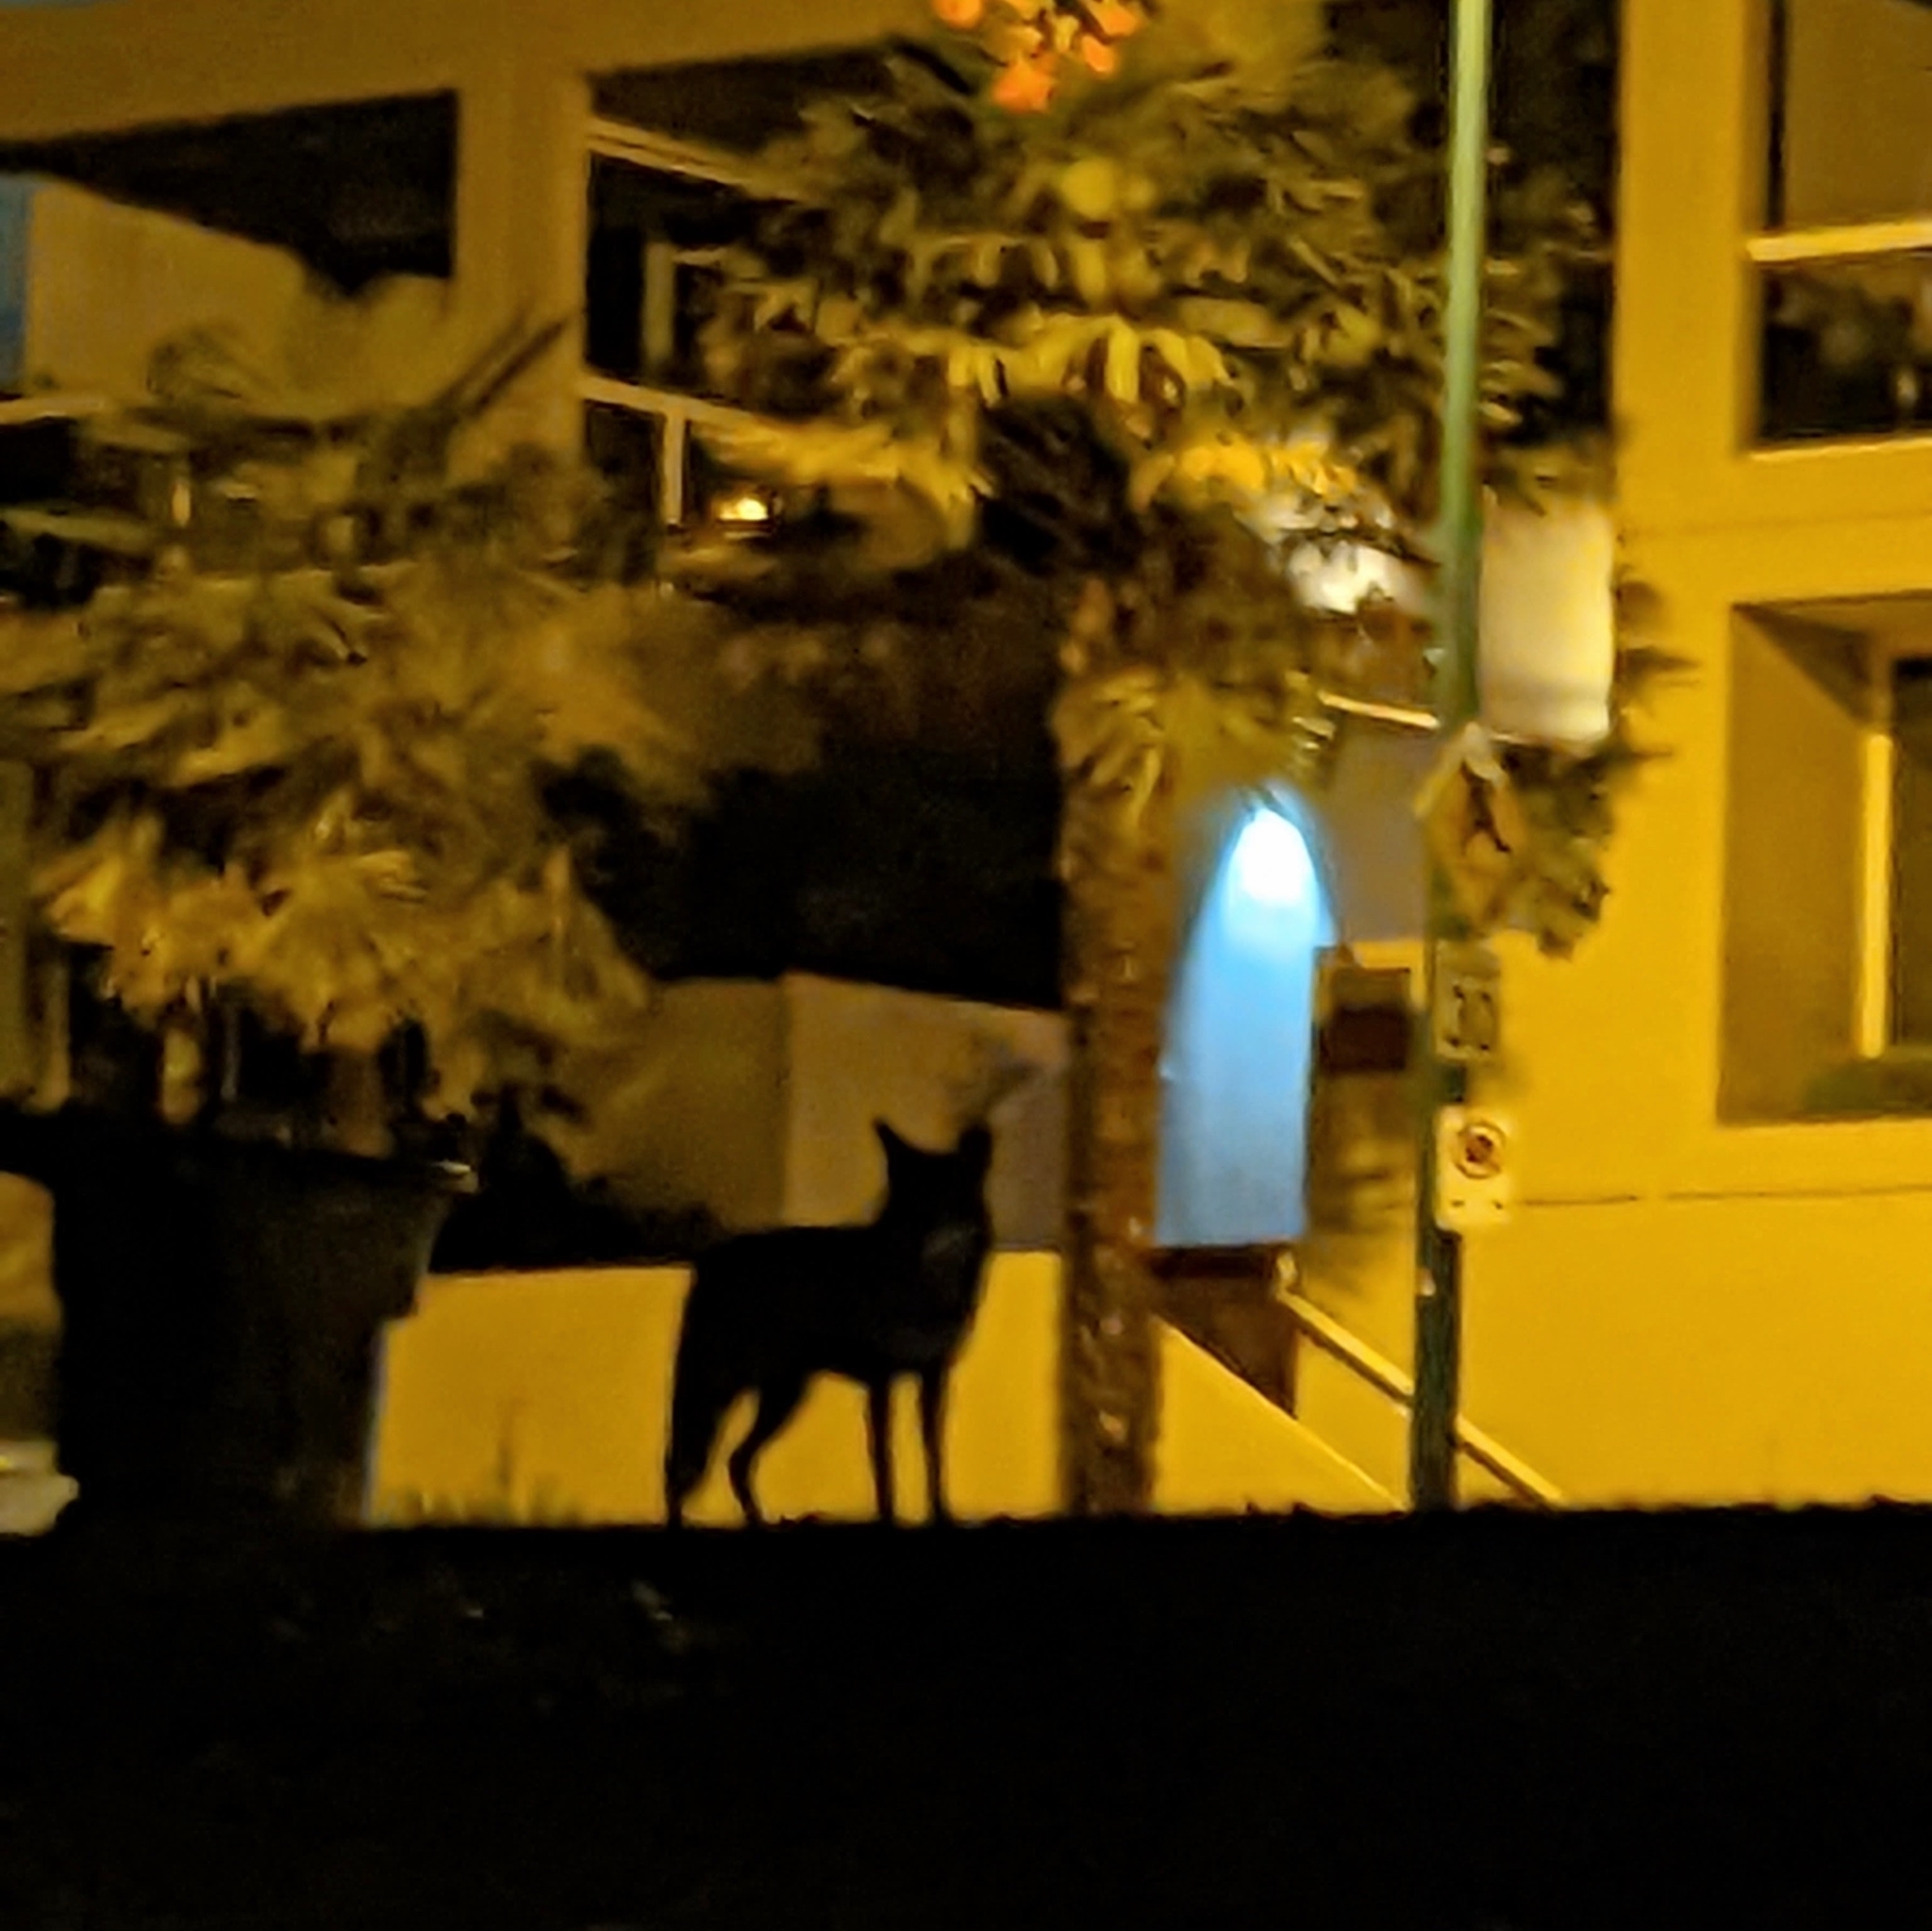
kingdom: Animalia
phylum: Chordata
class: Mammalia
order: Carnivora
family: Canidae
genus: Canis
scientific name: Canis latrans
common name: Coyote
